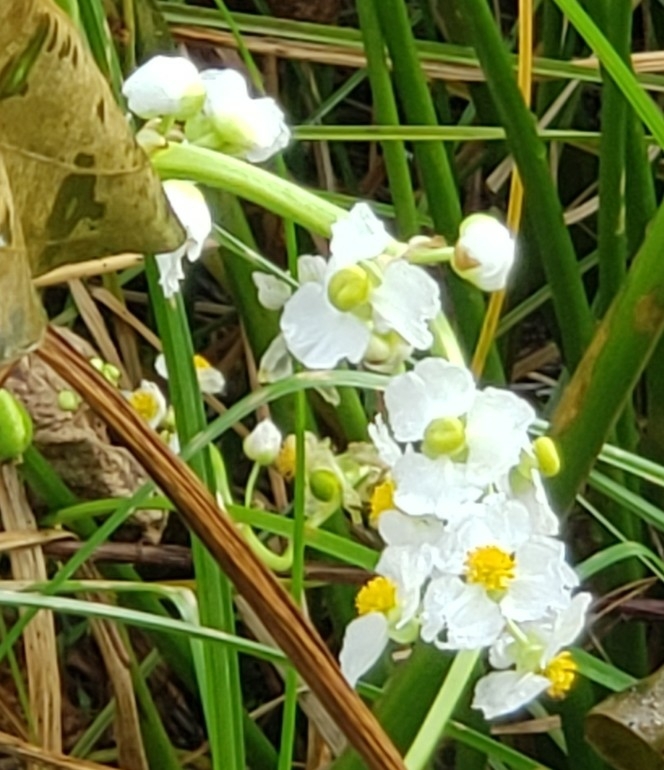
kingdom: Plantae
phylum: Tracheophyta
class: Liliopsida
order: Alismatales
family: Alismataceae
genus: Sagittaria
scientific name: Sagittaria latifolia
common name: Duck-potato
